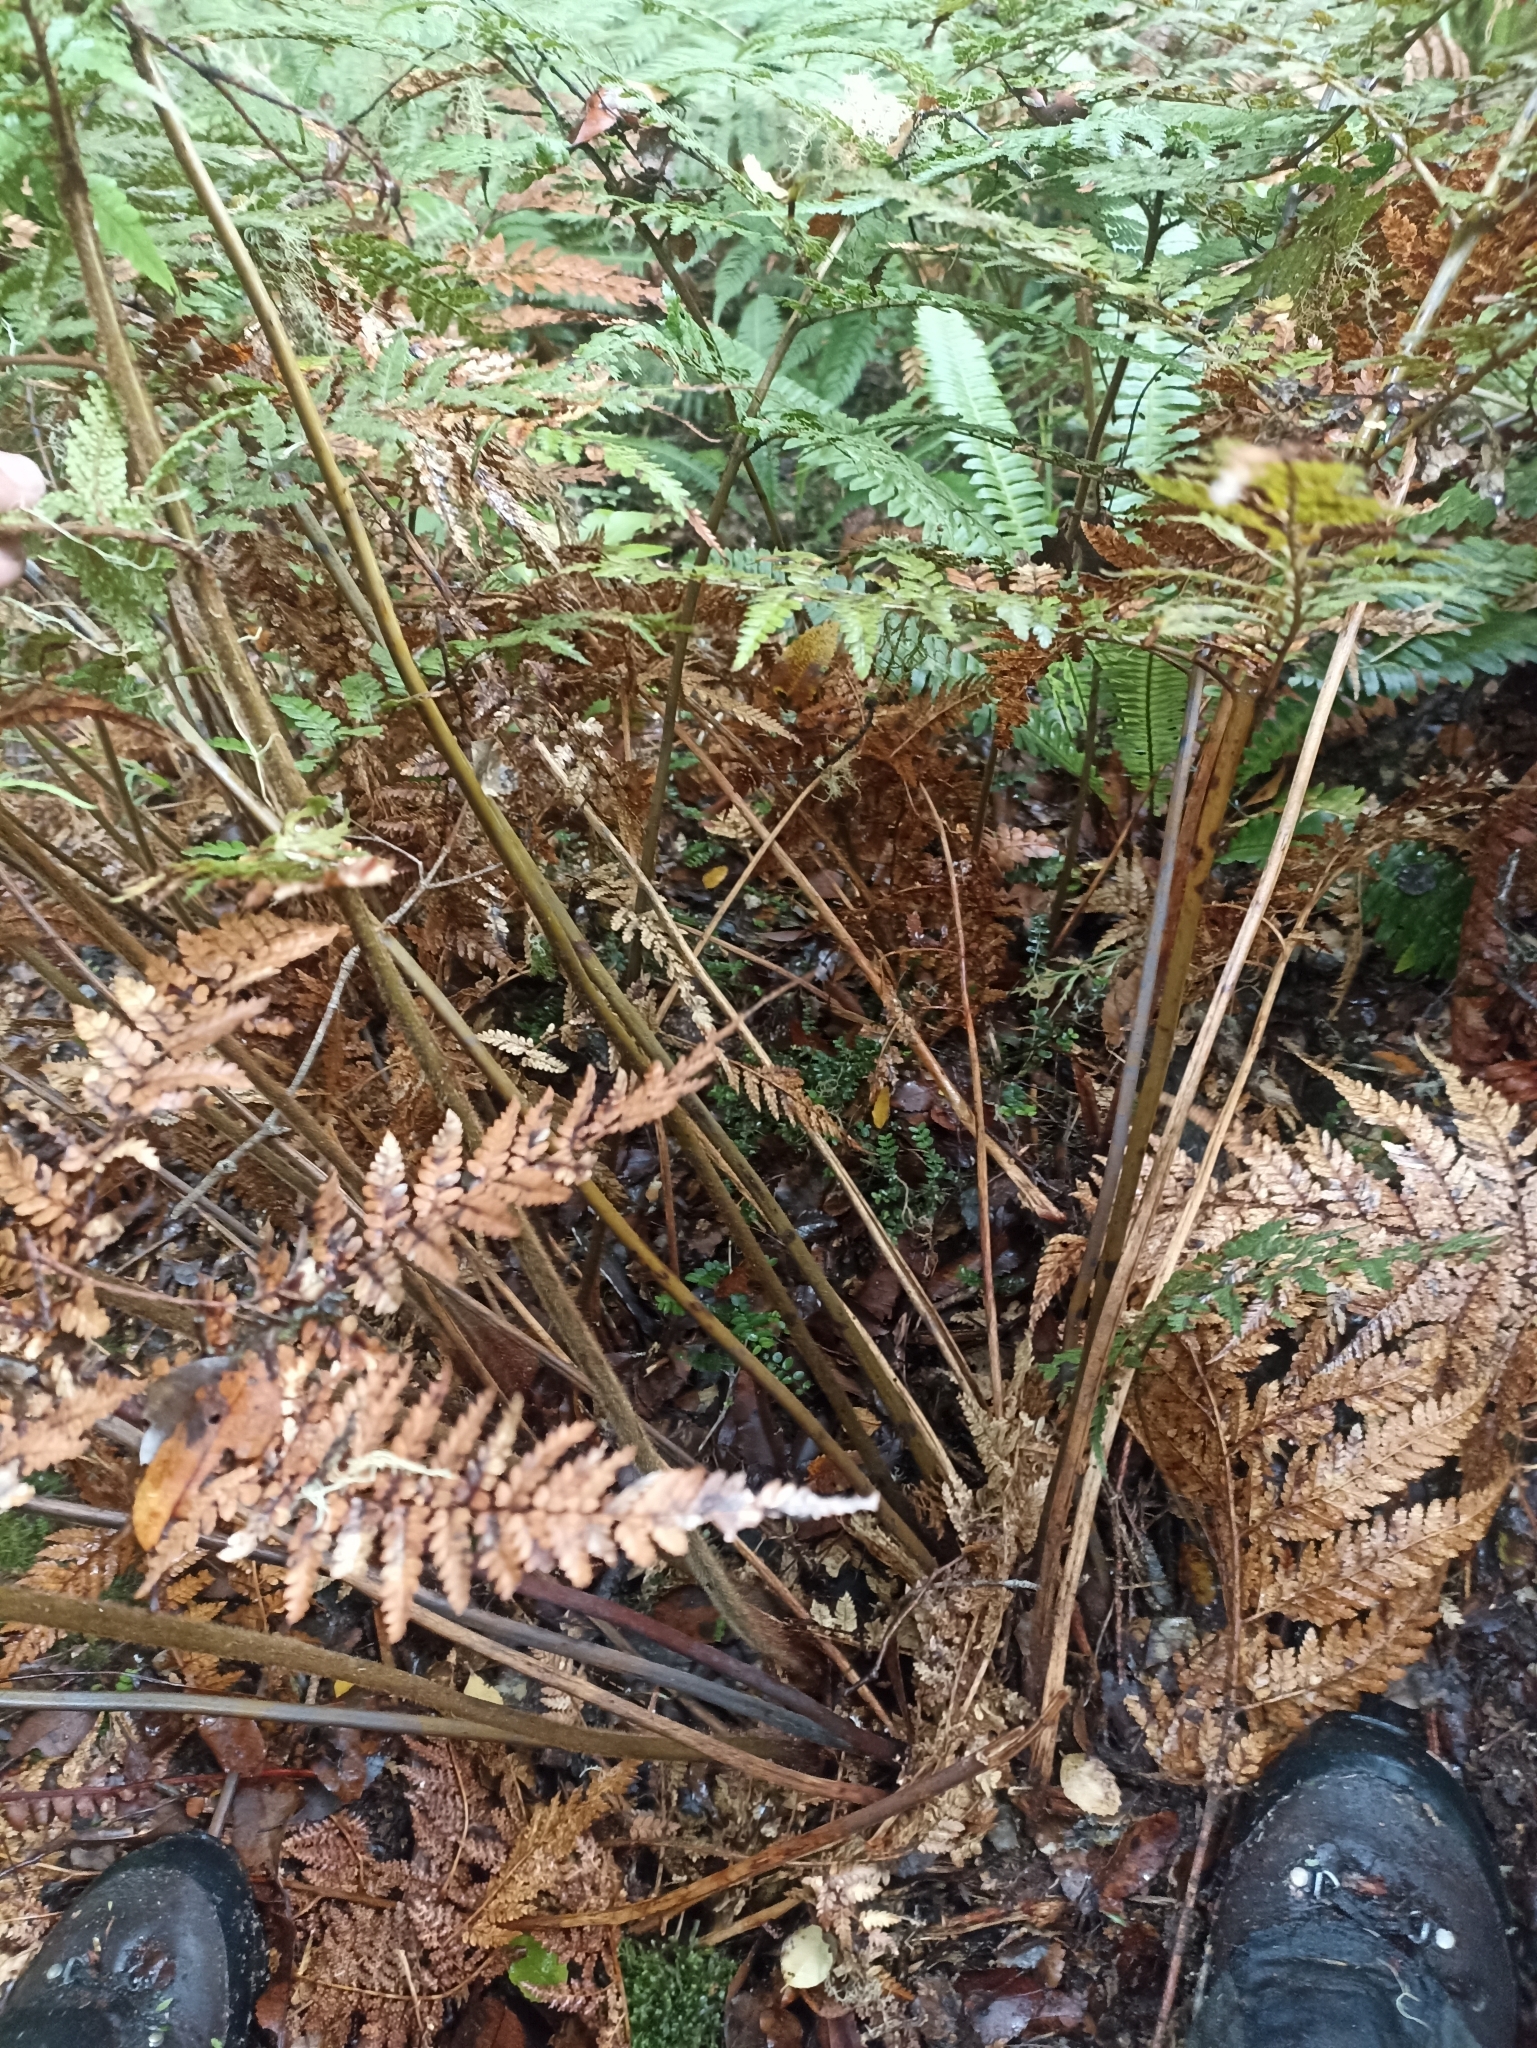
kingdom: Plantae
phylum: Tracheophyta
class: Polypodiopsida
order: Cyatheales
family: Dicksoniaceae
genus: Dicksonia
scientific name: Dicksonia lanata
